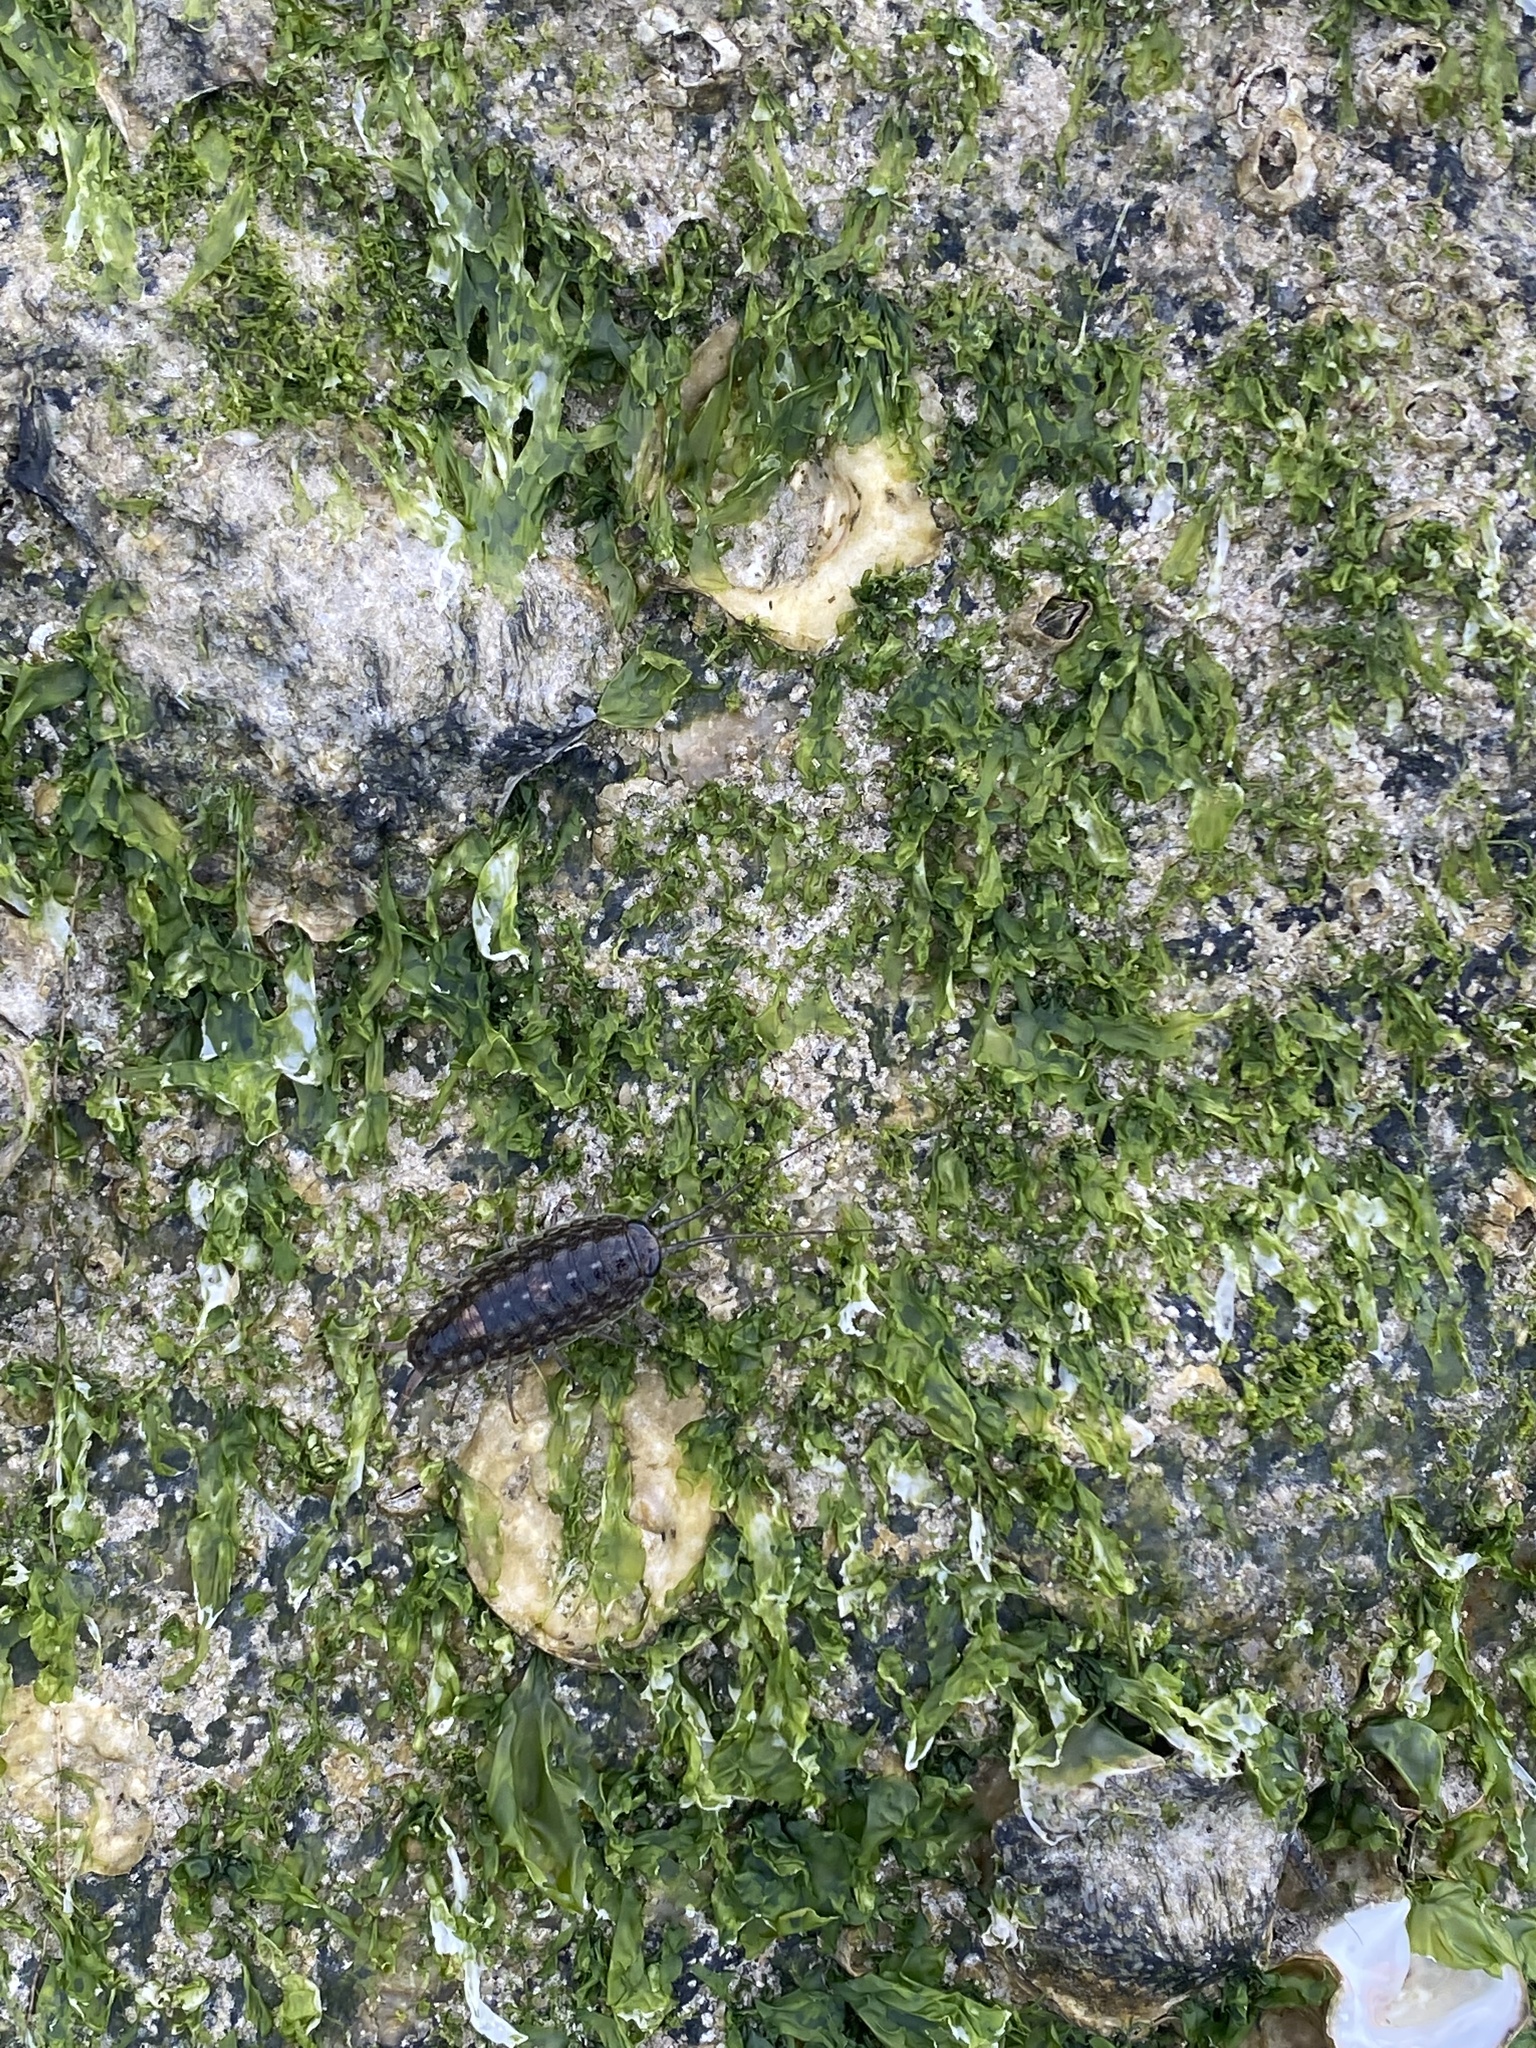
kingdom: Animalia
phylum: Arthropoda
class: Malacostraca
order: Isopoda
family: Ligiidae
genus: Ligia
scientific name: Ligia exotica
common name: Wharf roach
